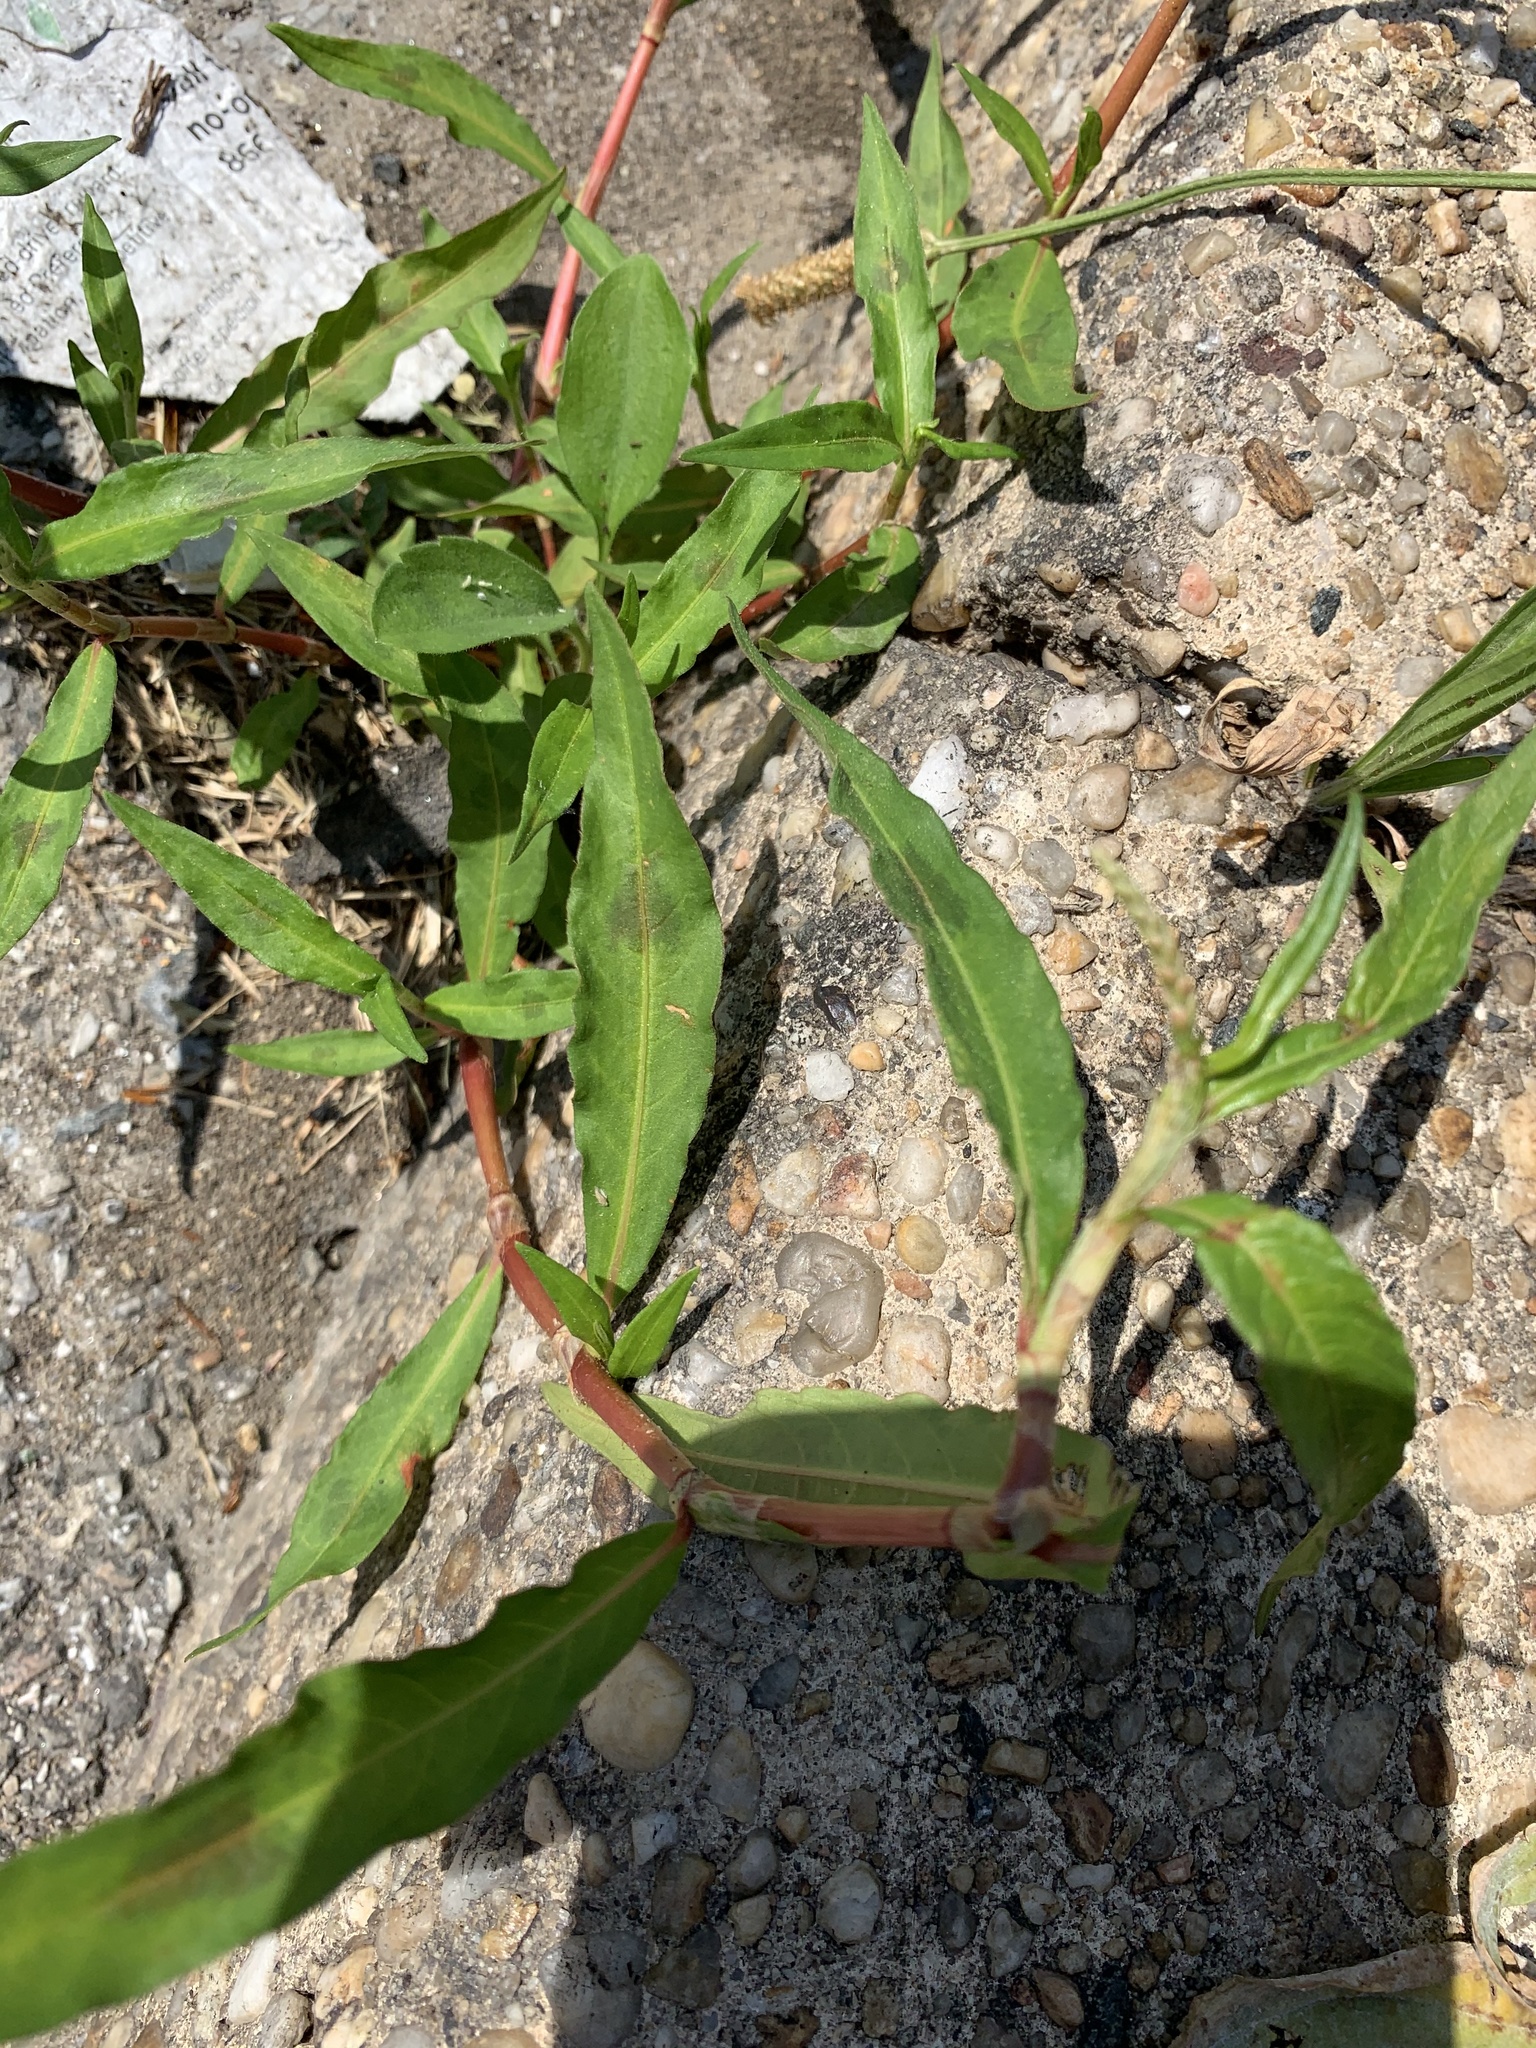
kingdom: Plantae
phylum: Tracheophyta
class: Magnoliopsida
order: Caryophyllales
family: Polygonaceae
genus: Persicaria
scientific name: Persicaria maculosa
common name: Redshank
